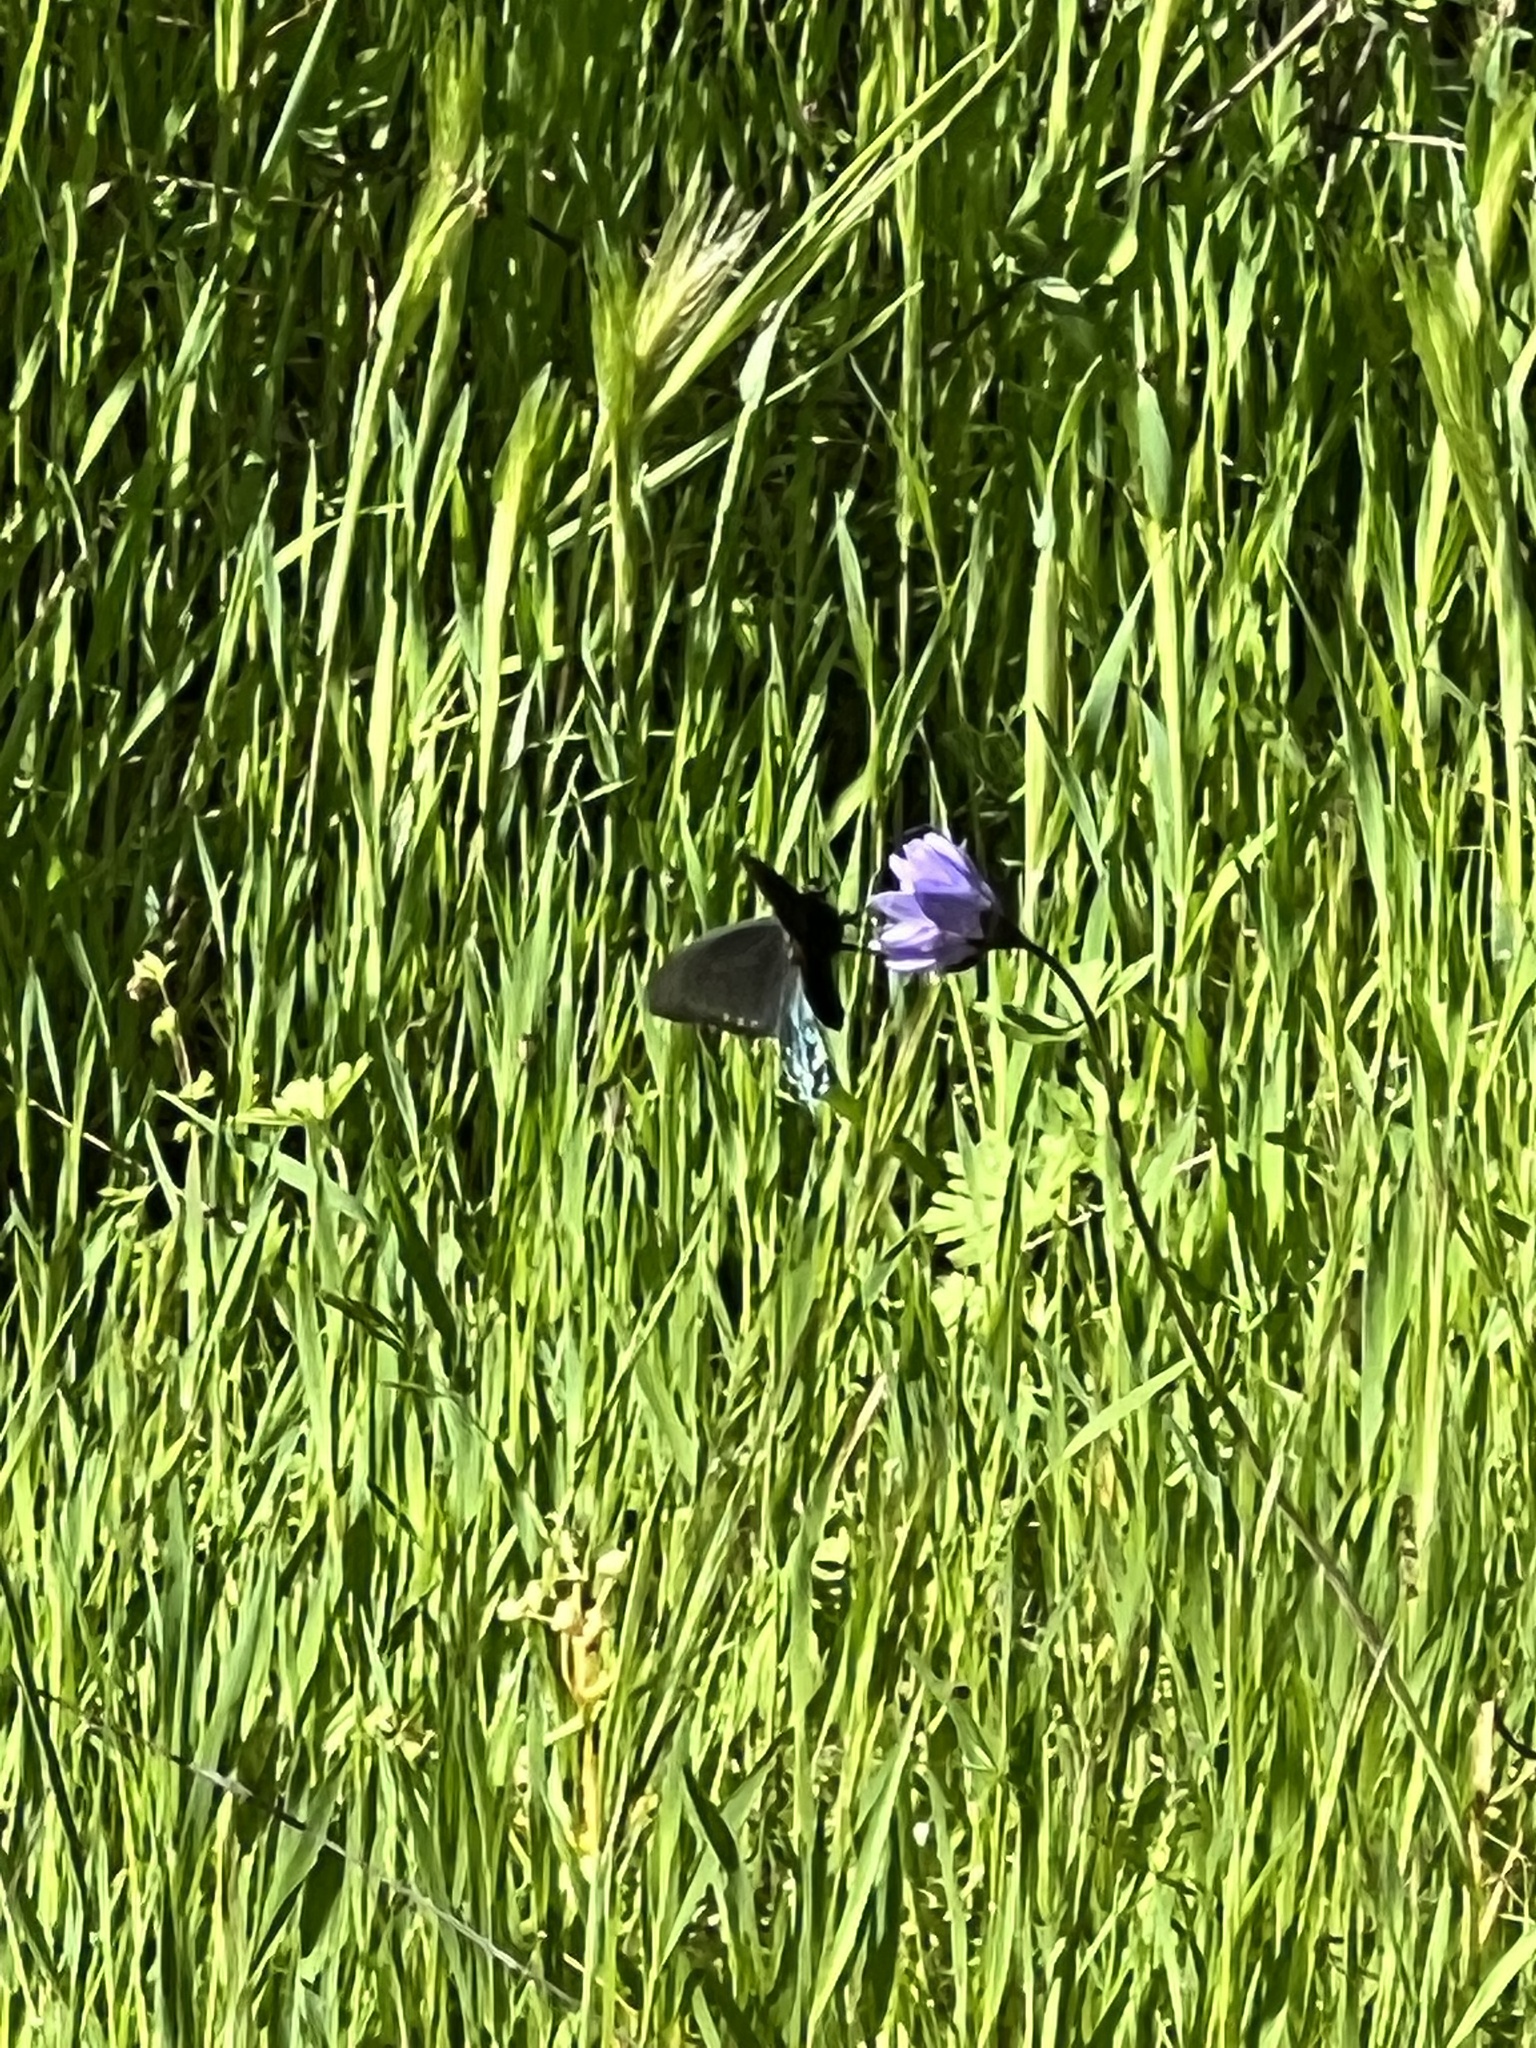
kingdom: Animalia
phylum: Arthropoda
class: Insecta
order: Lepidoptera
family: Papilionidae
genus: Battus
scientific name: Battus philenor
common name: Pipevine swallowtail
